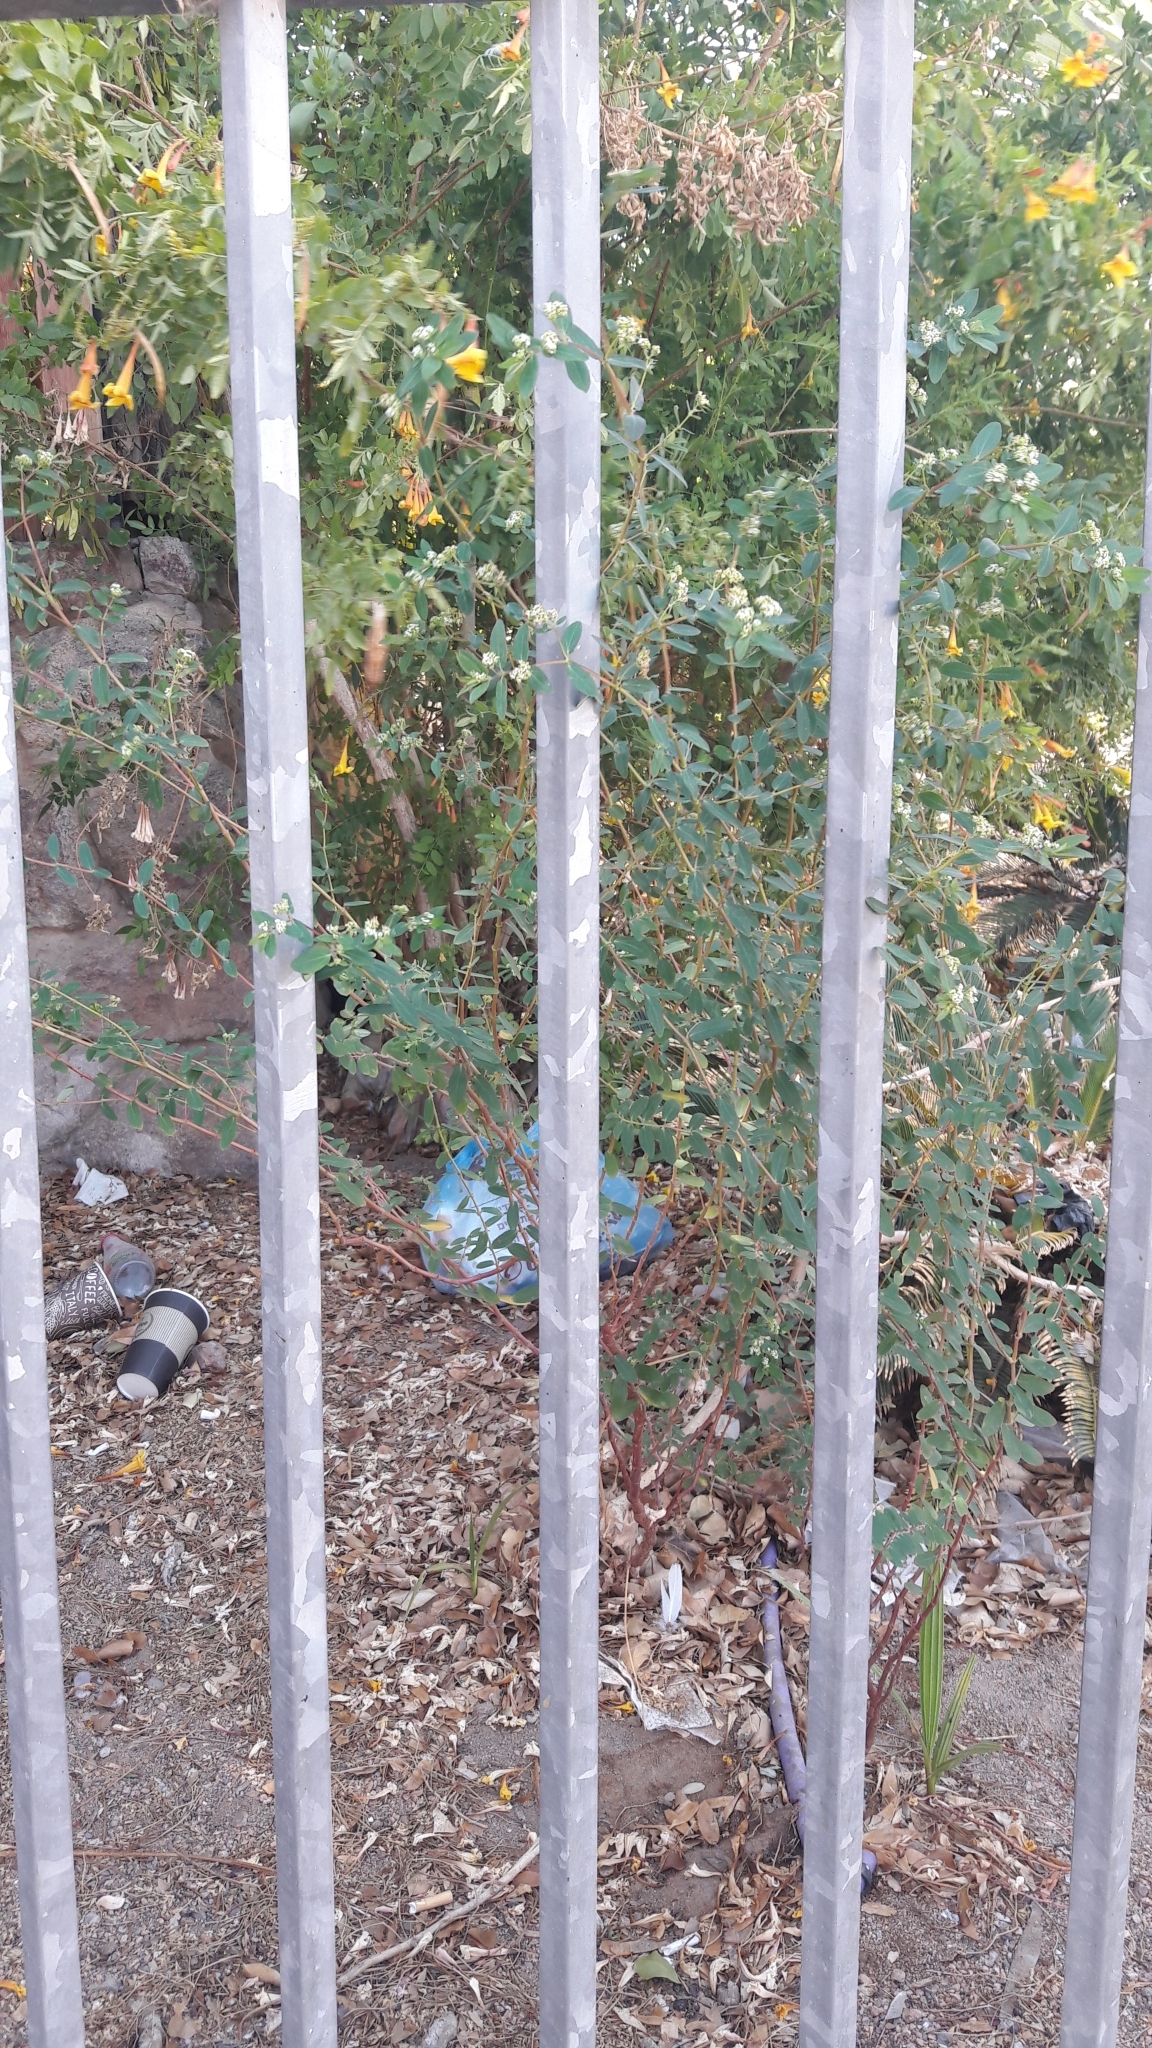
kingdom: Plantae
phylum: Tracheophyta
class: Magnoliopsida
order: Malpighiales
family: Euphorbiaceae
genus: Euphorbia
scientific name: Euphorbia hypericifolia
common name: Graceful sandmat
